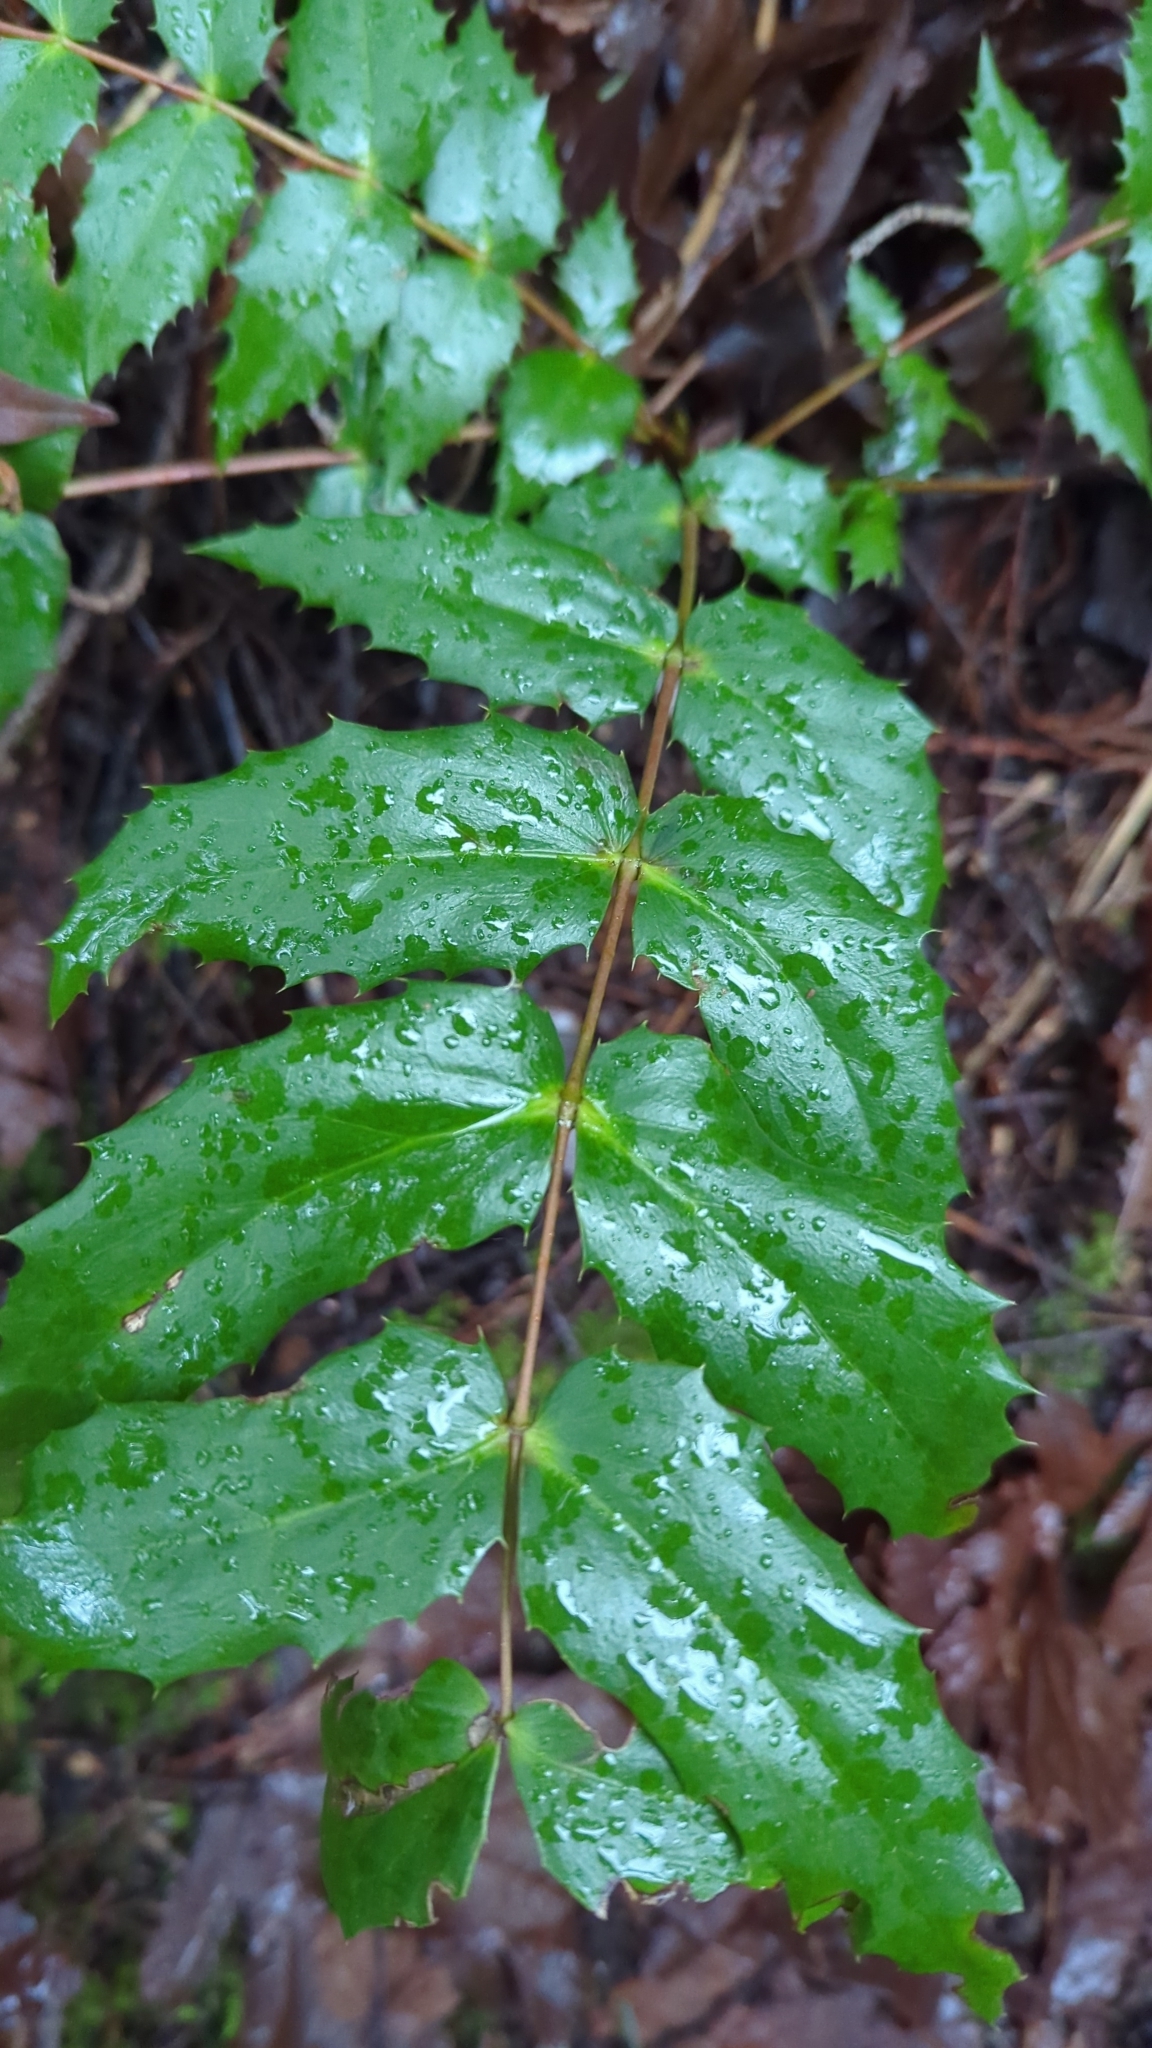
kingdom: Plantae
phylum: Tracheophyta
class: Magnoliopsida
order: Ranunculales
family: Berberidaceae
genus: Mahonia
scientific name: Mahonia nervosa
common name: Cascade oregon-grape
